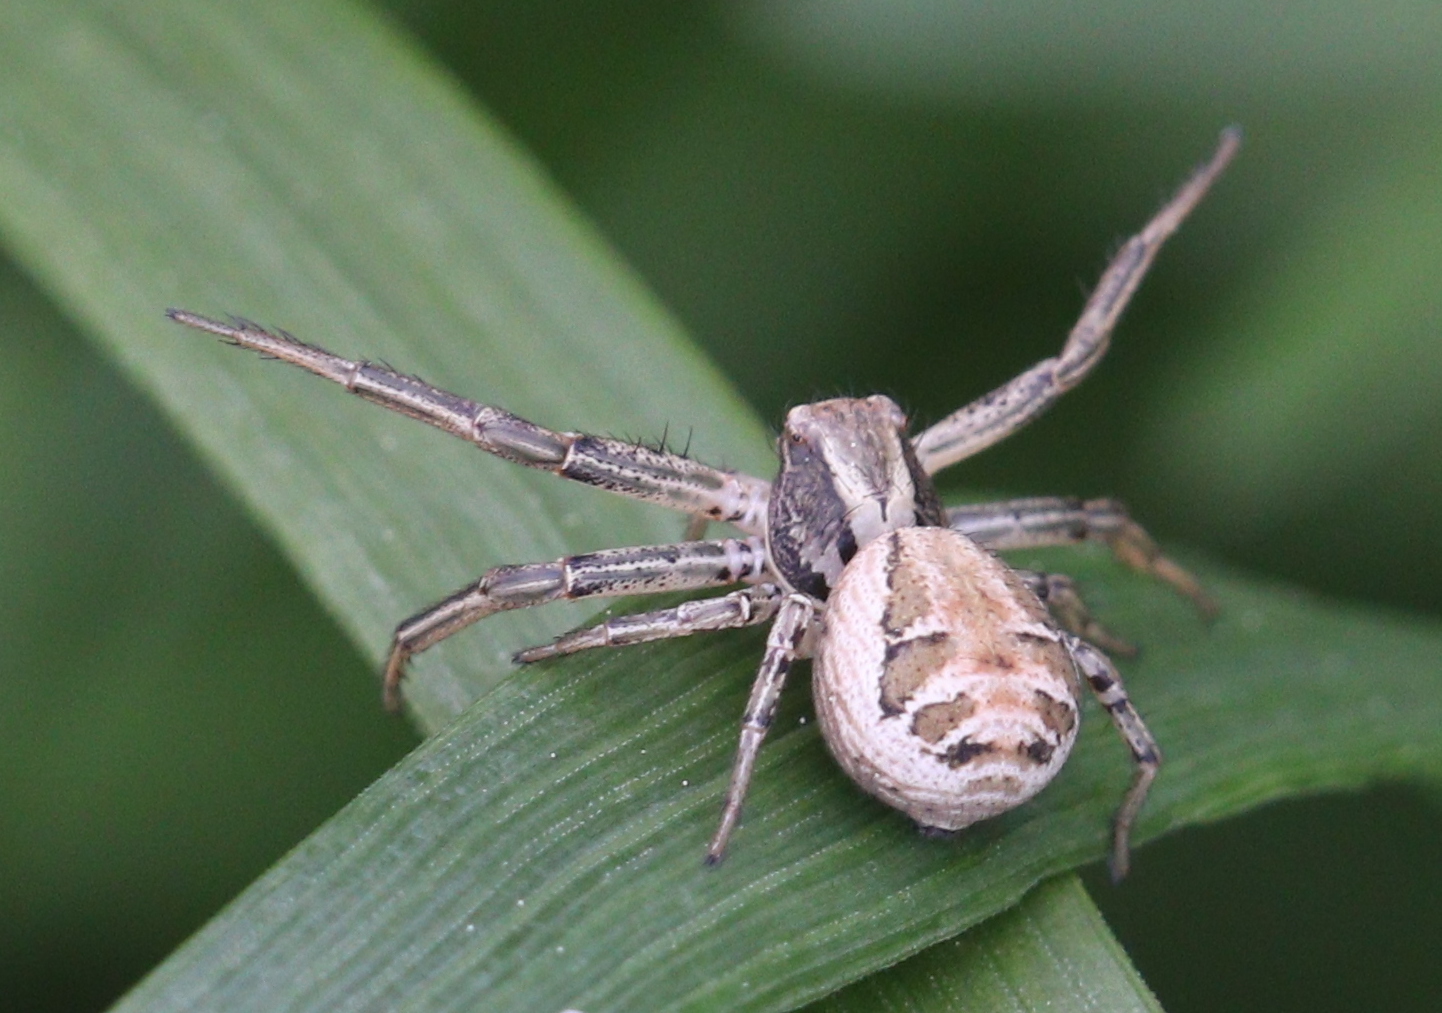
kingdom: Animalia
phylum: Arthropoda
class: Arachnida
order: Araneae
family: Thomisidae
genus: Xysticus
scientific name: Xysticus
